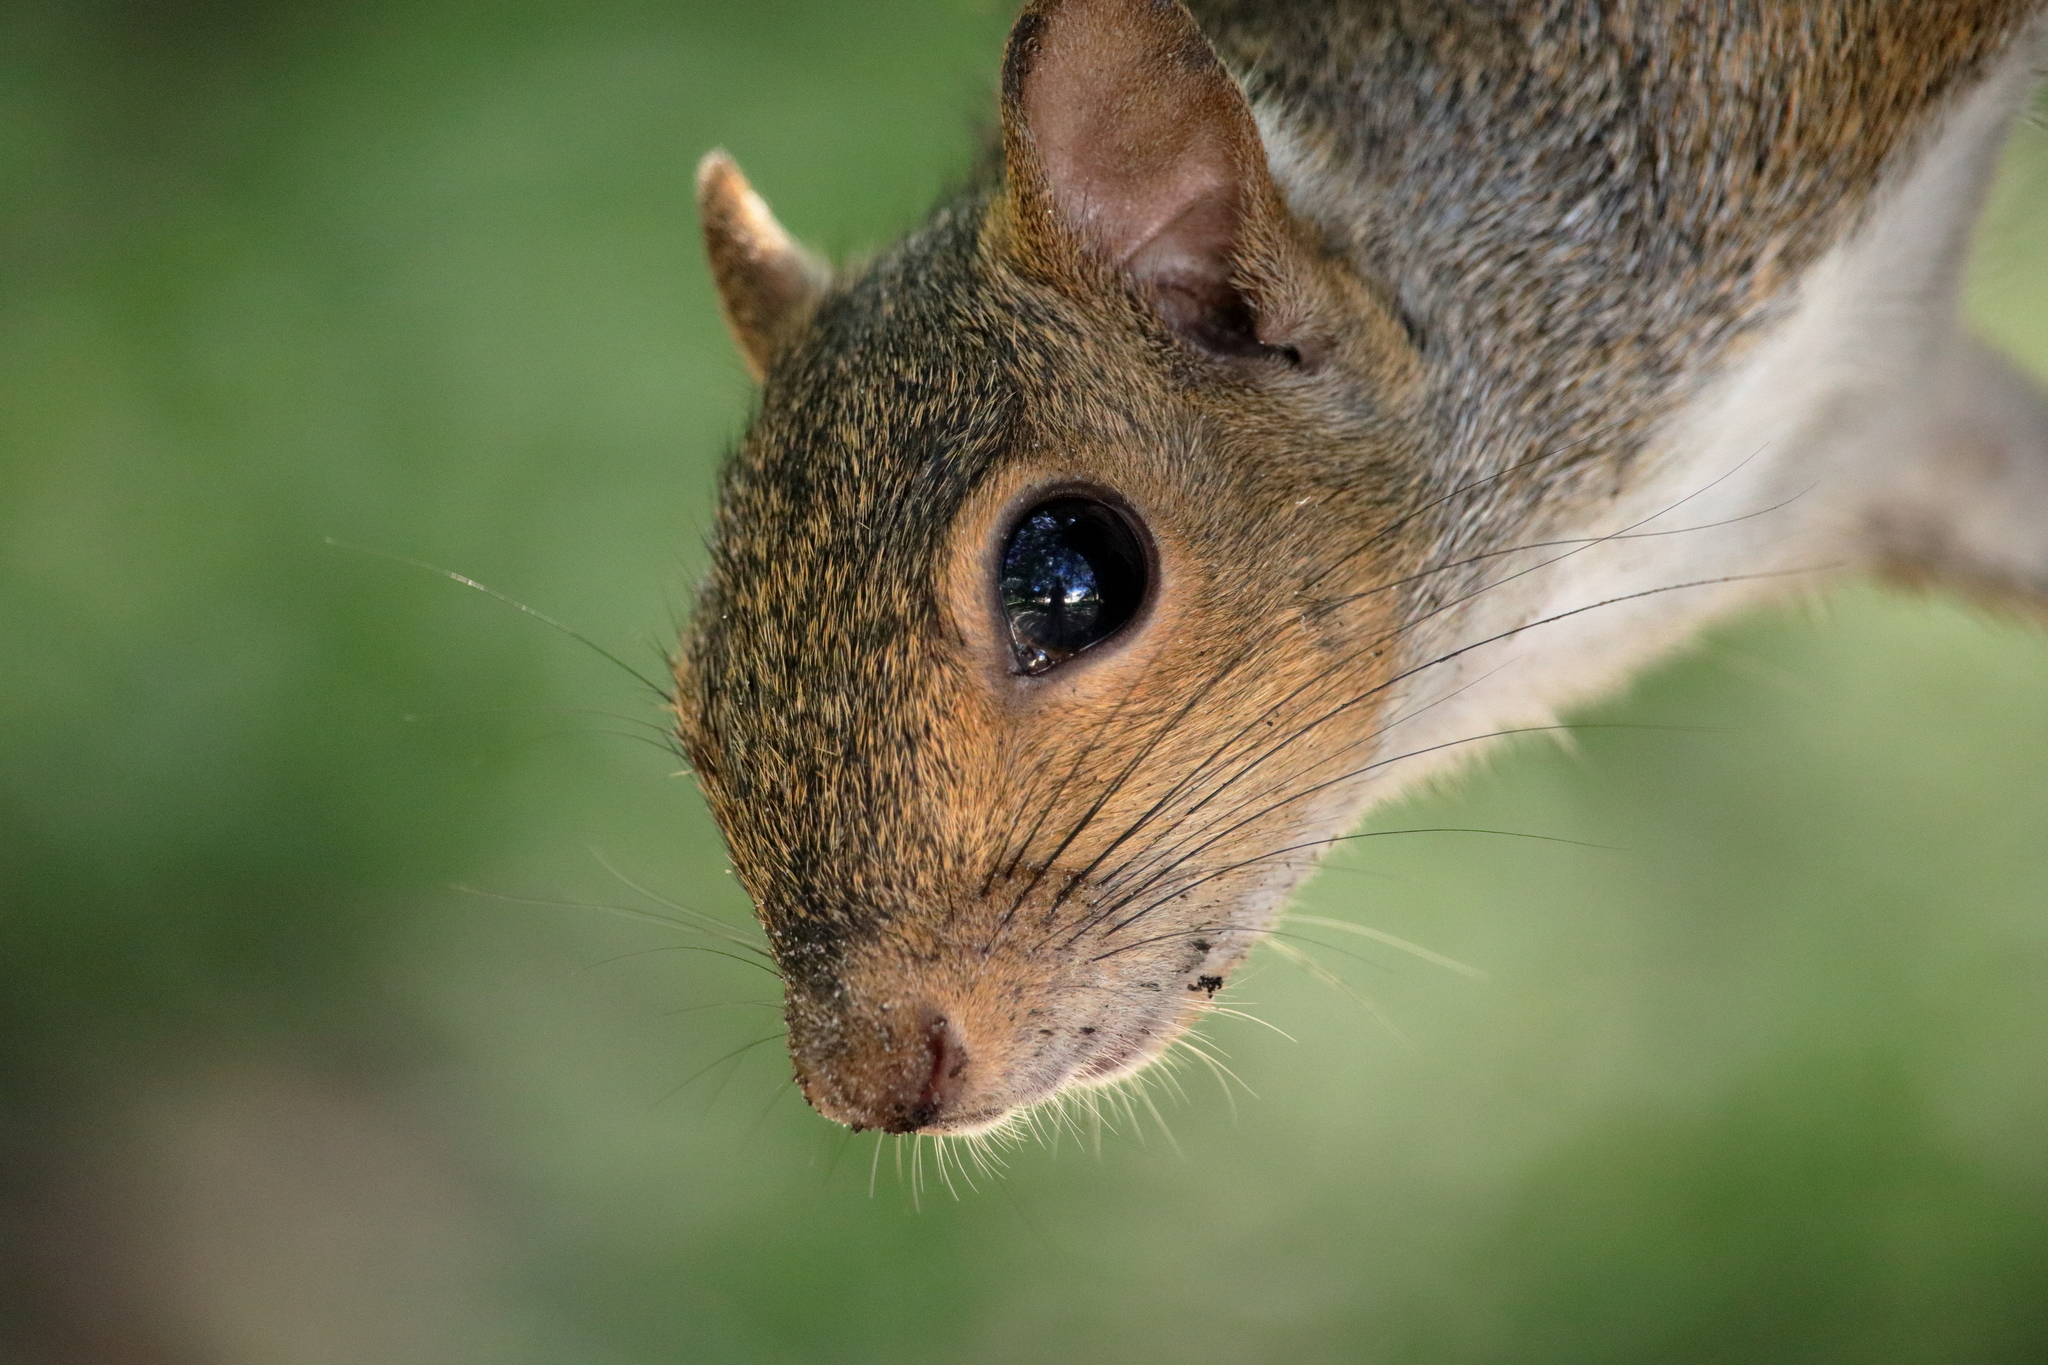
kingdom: Animalia
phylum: Chordata
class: Mammalia
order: Rodentia
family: Sciuridae
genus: Sciurus
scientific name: Sciurus carolinensis
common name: Eastern gray squirrel
